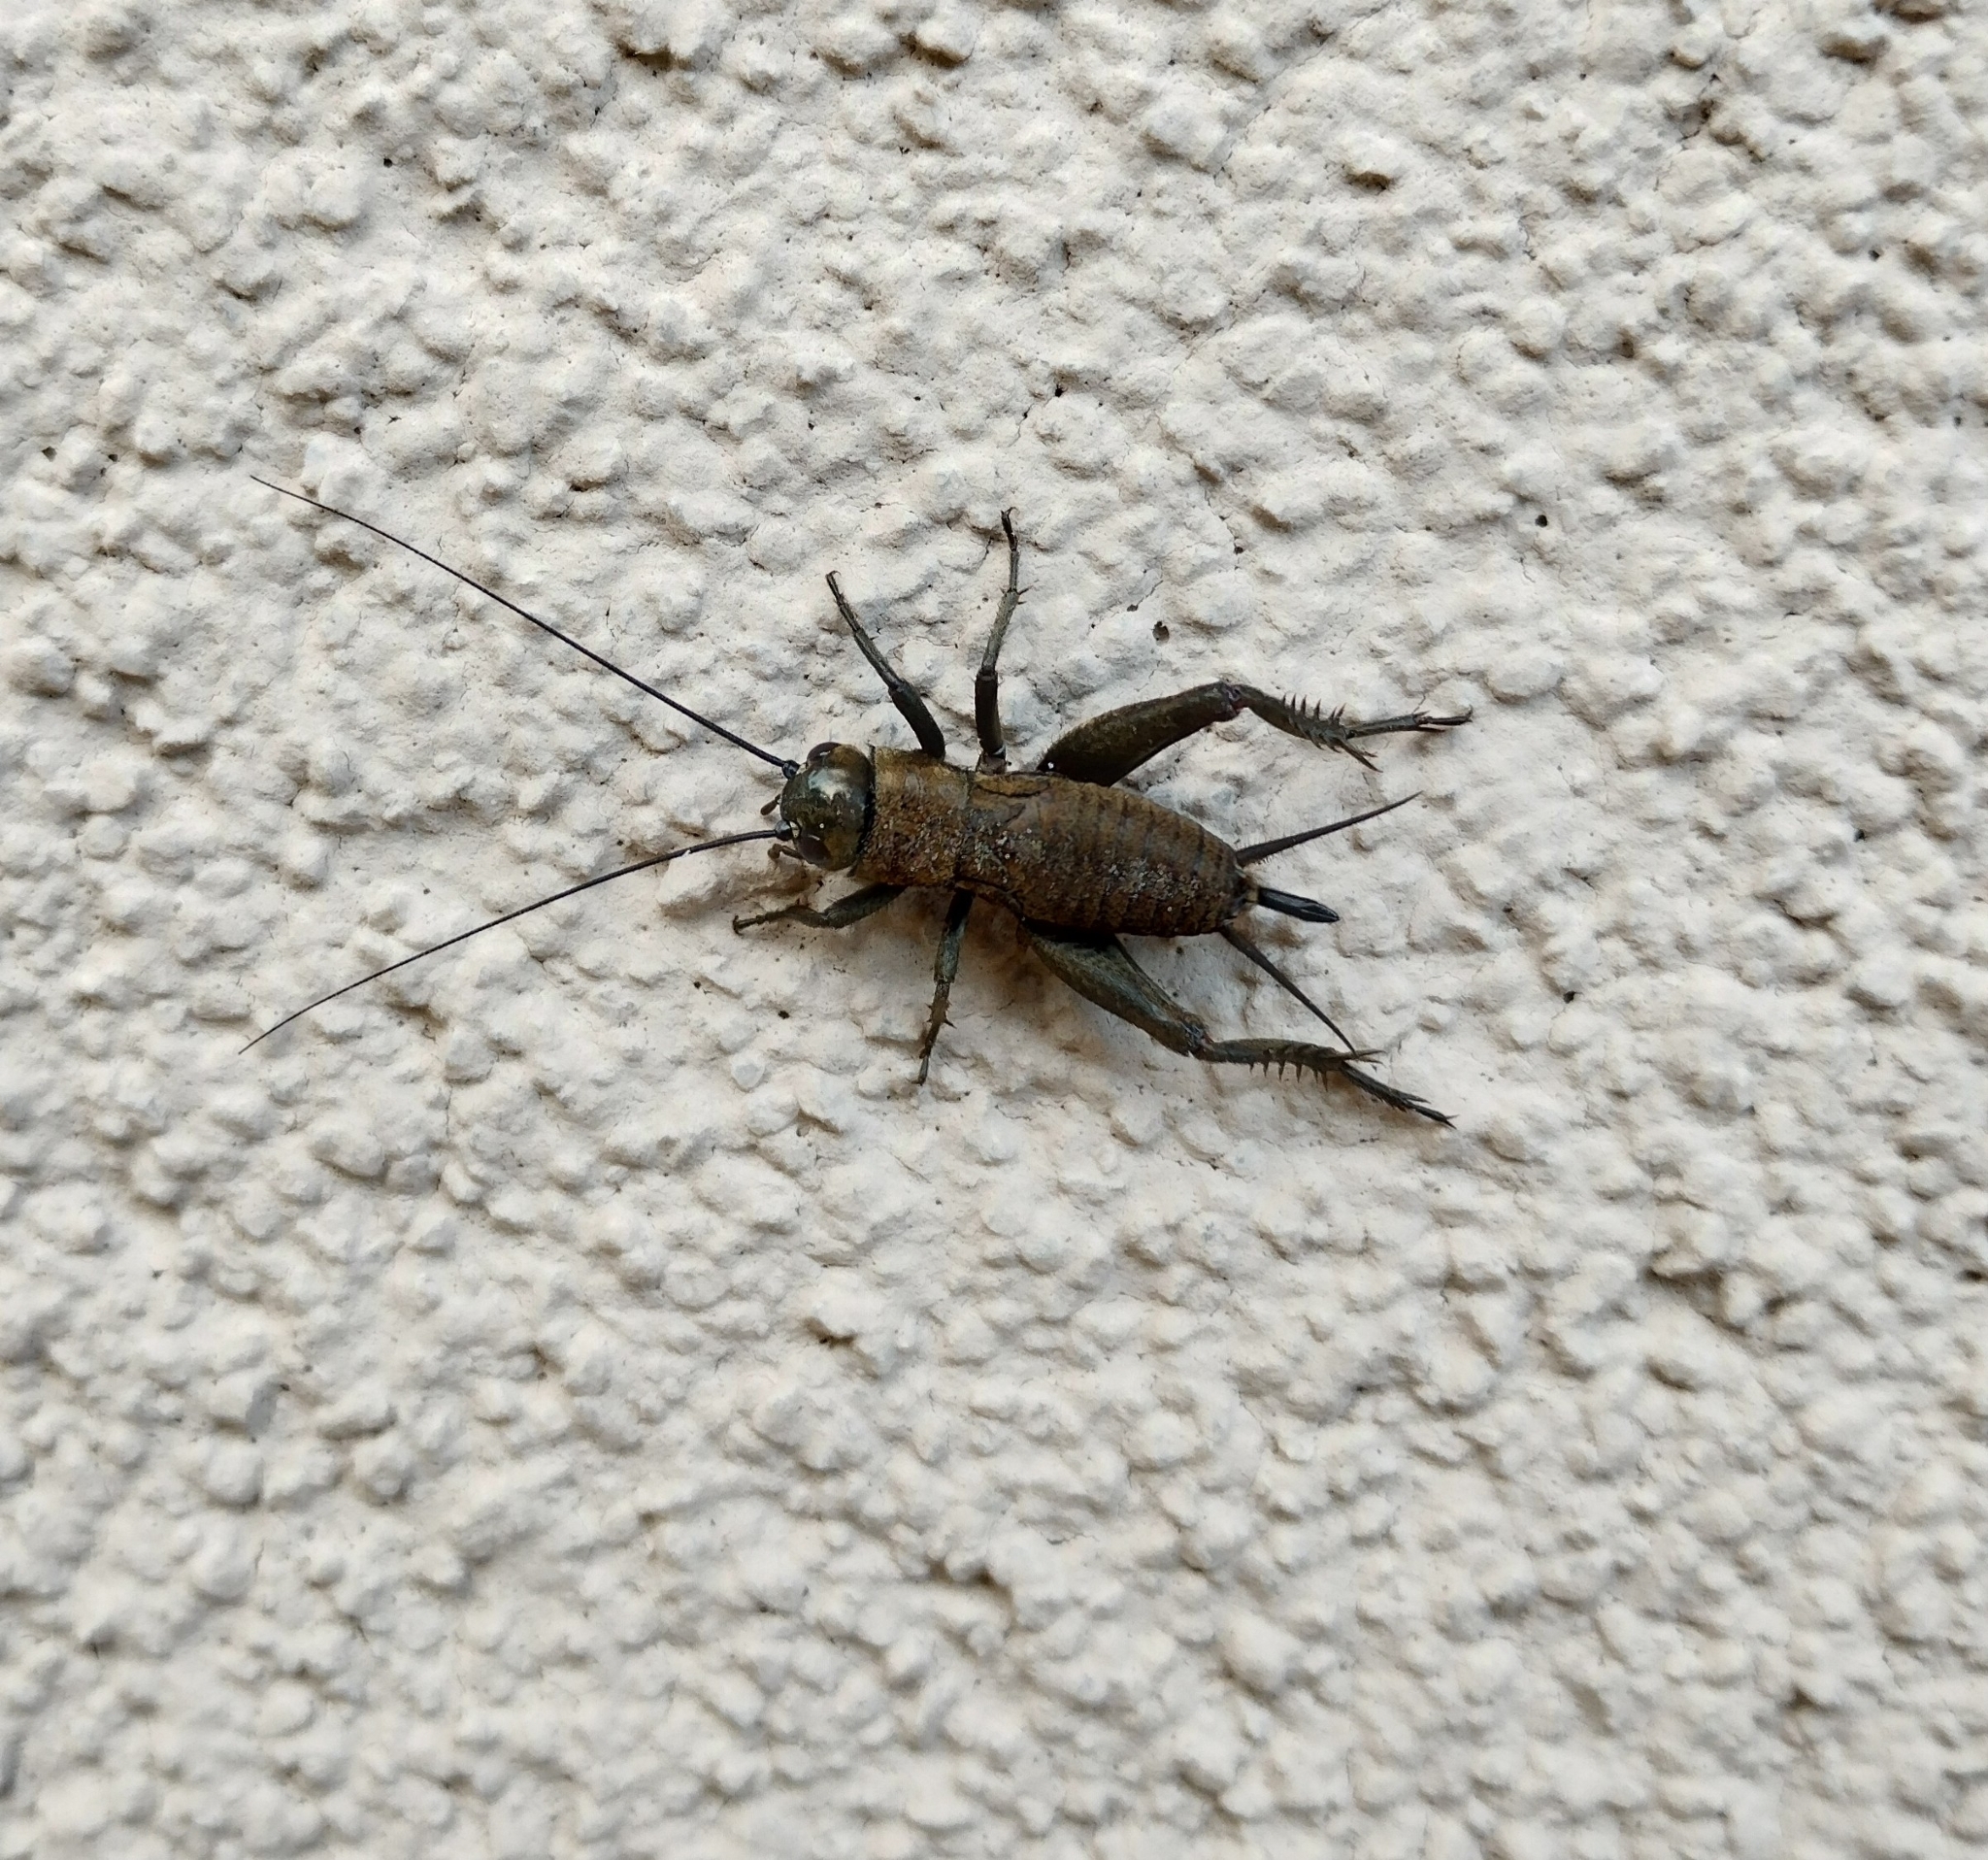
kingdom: Animalia
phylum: Arthropoda
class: Insecta
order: Orthoptera
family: Gryllidae
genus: Melanogryllus
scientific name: Melanogryllus desertus
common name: Desert cricket
